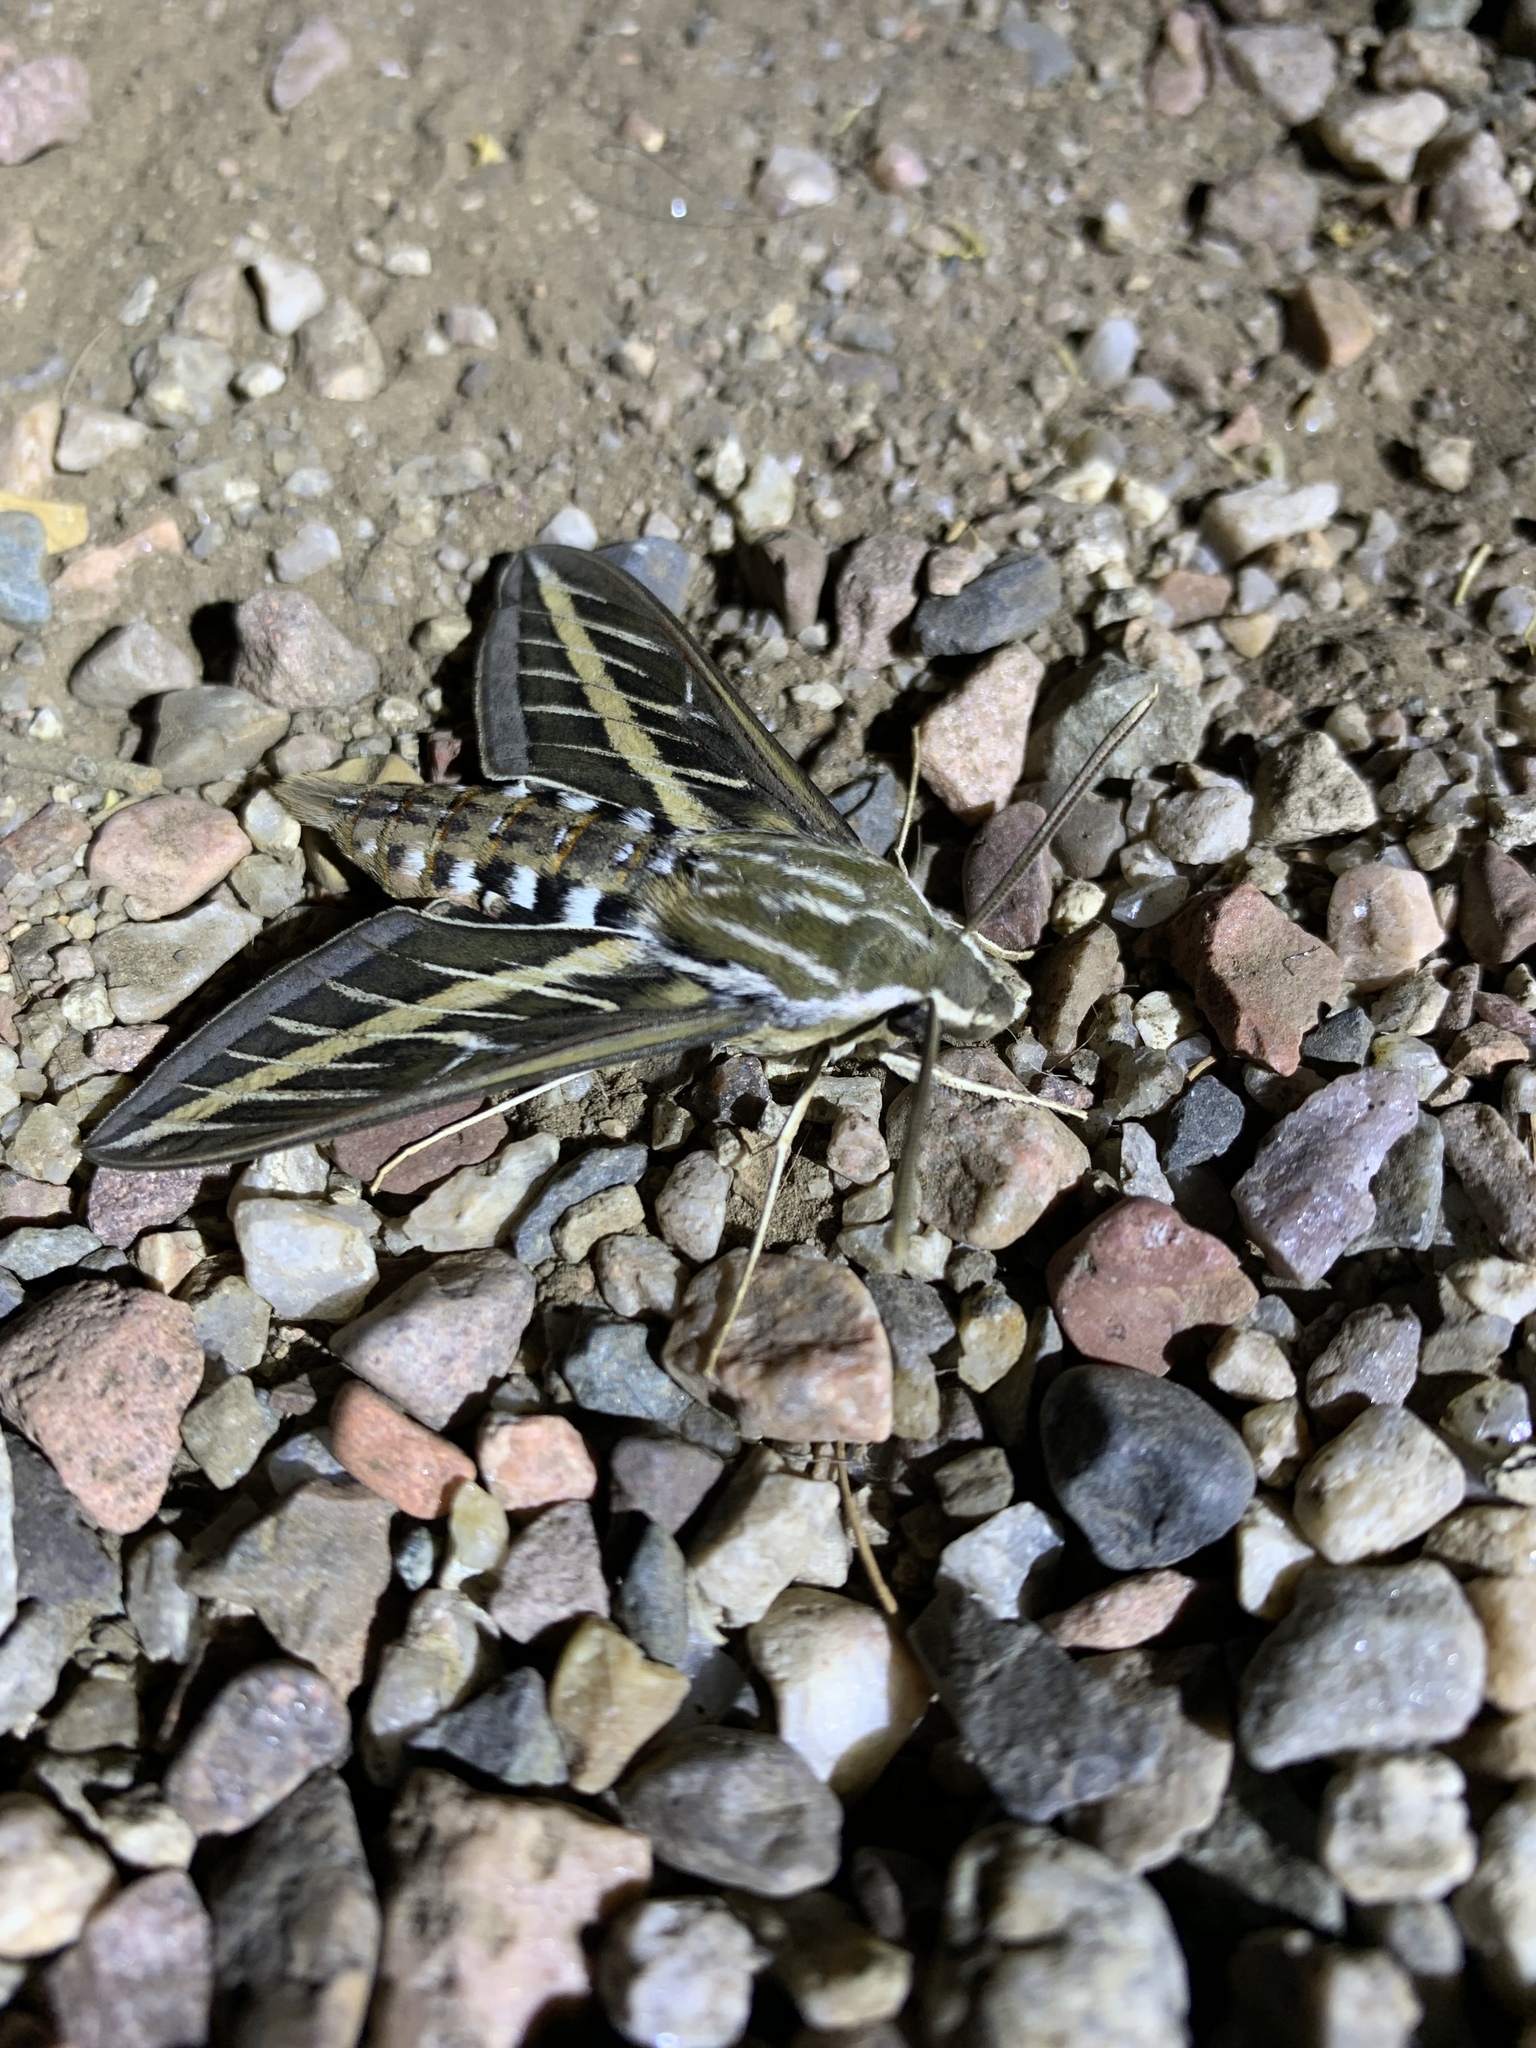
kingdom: Animalia
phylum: Arthropoda
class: Insecta
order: Lepidoptera
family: Sphingidae
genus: Hyles
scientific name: Hyles lineata
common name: White-lined sphinx
